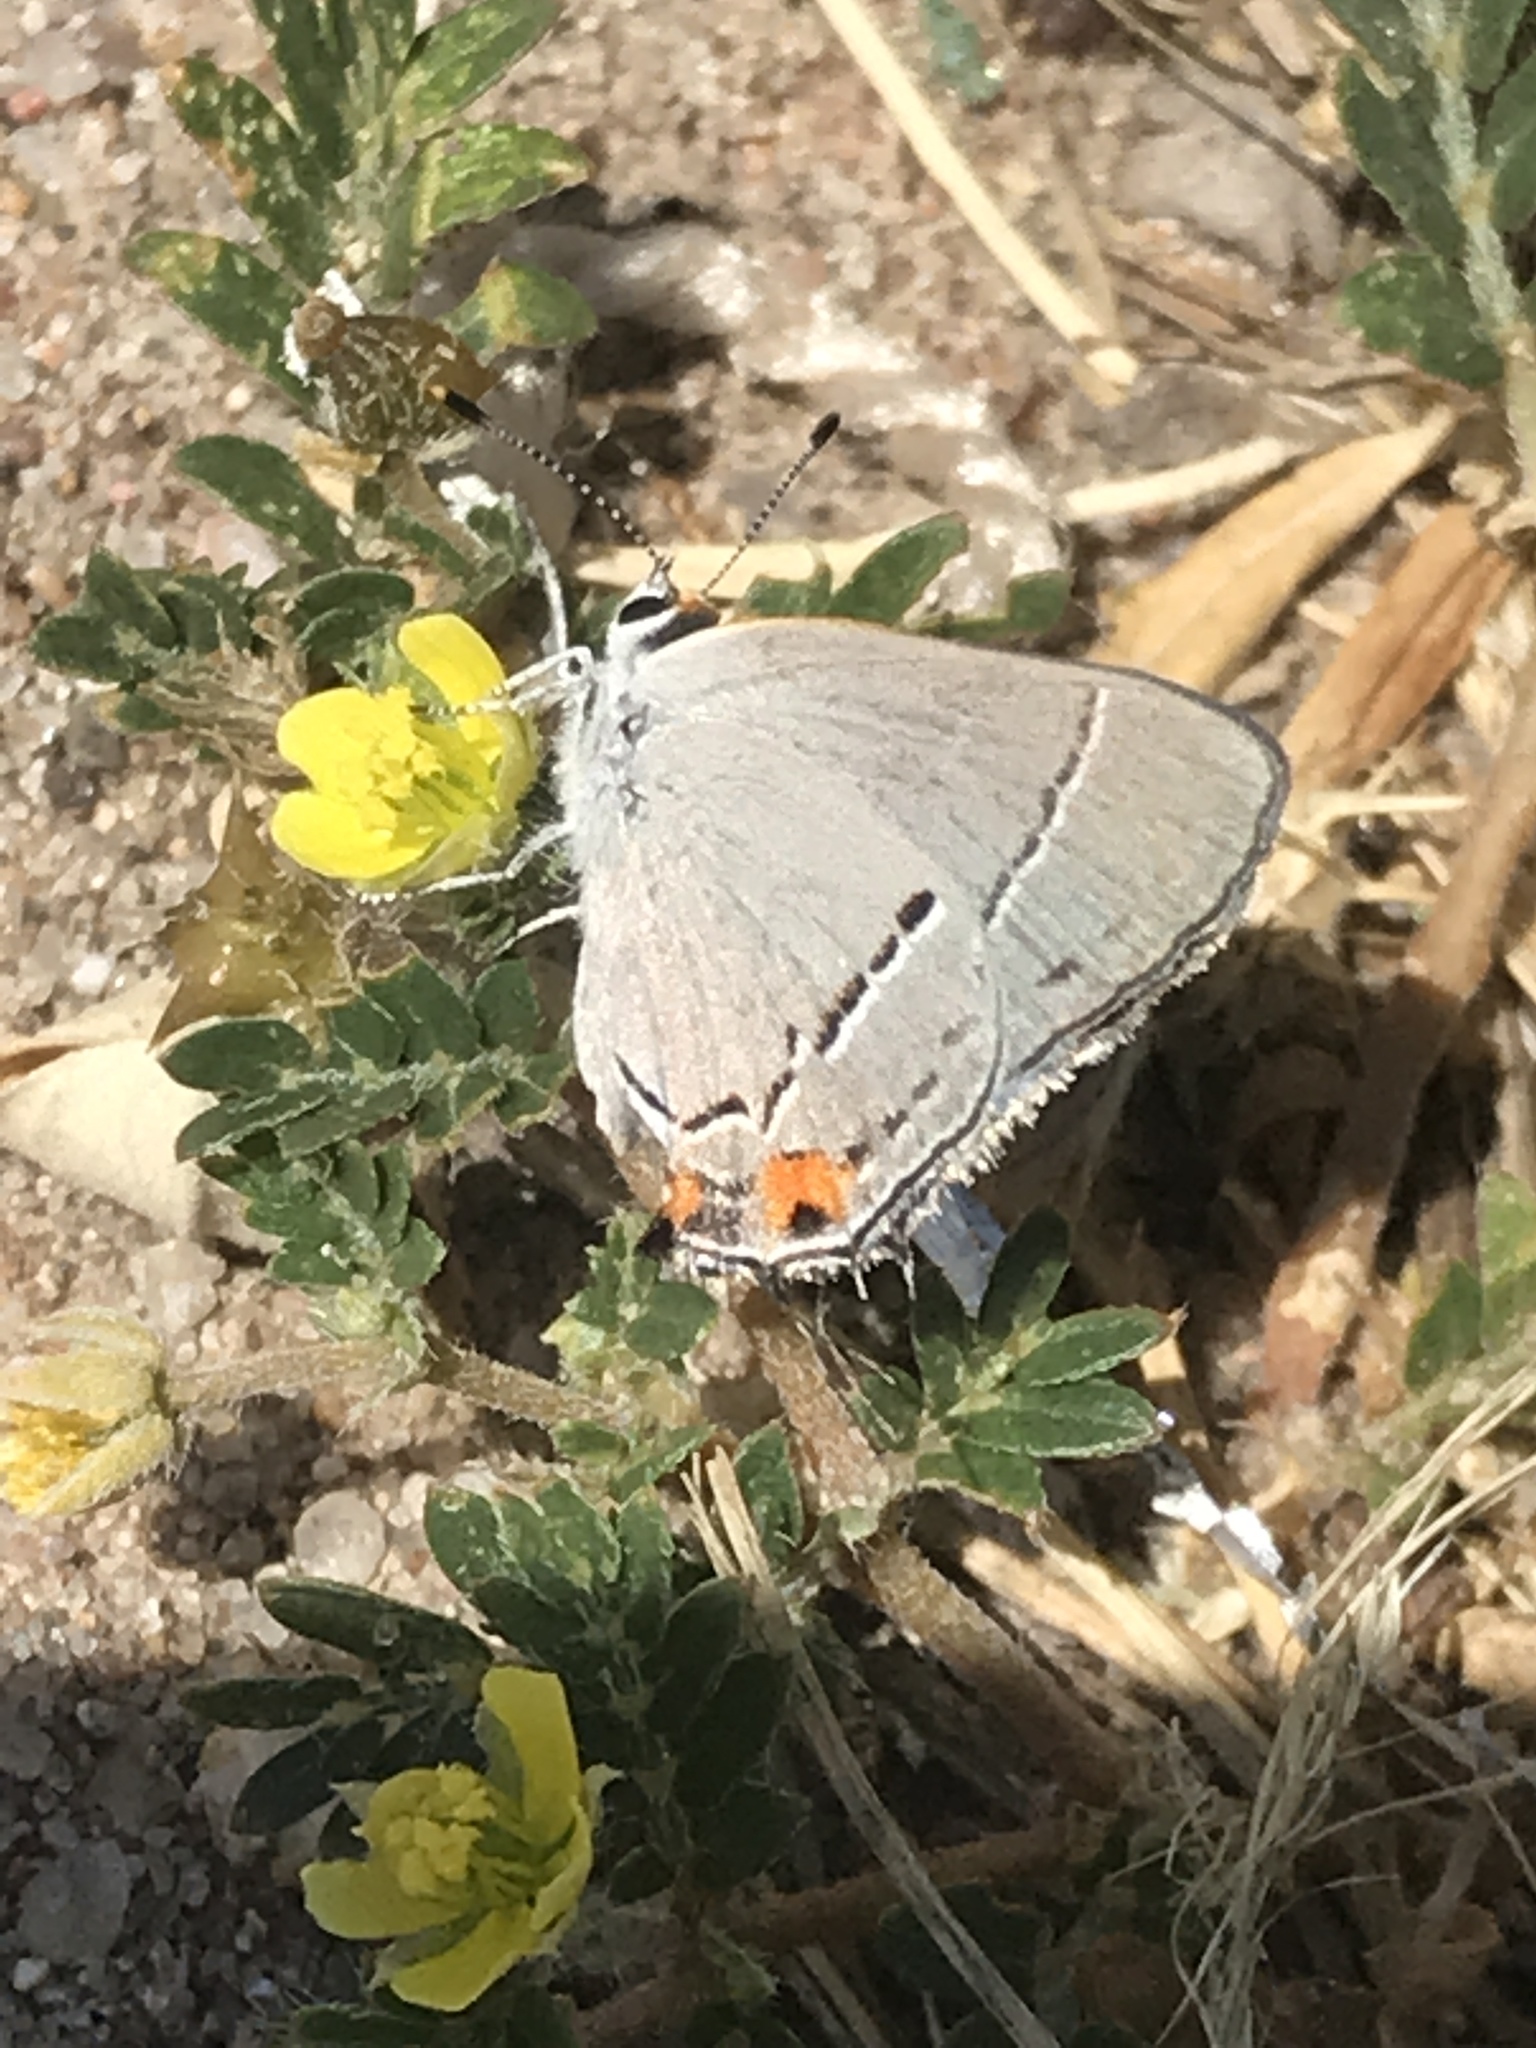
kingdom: Animalia
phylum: Arthropoda
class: Insecta
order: Lepidoptera
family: Lycaenidae
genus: Strymon
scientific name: Strymon melinus
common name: Gray hairstreak
